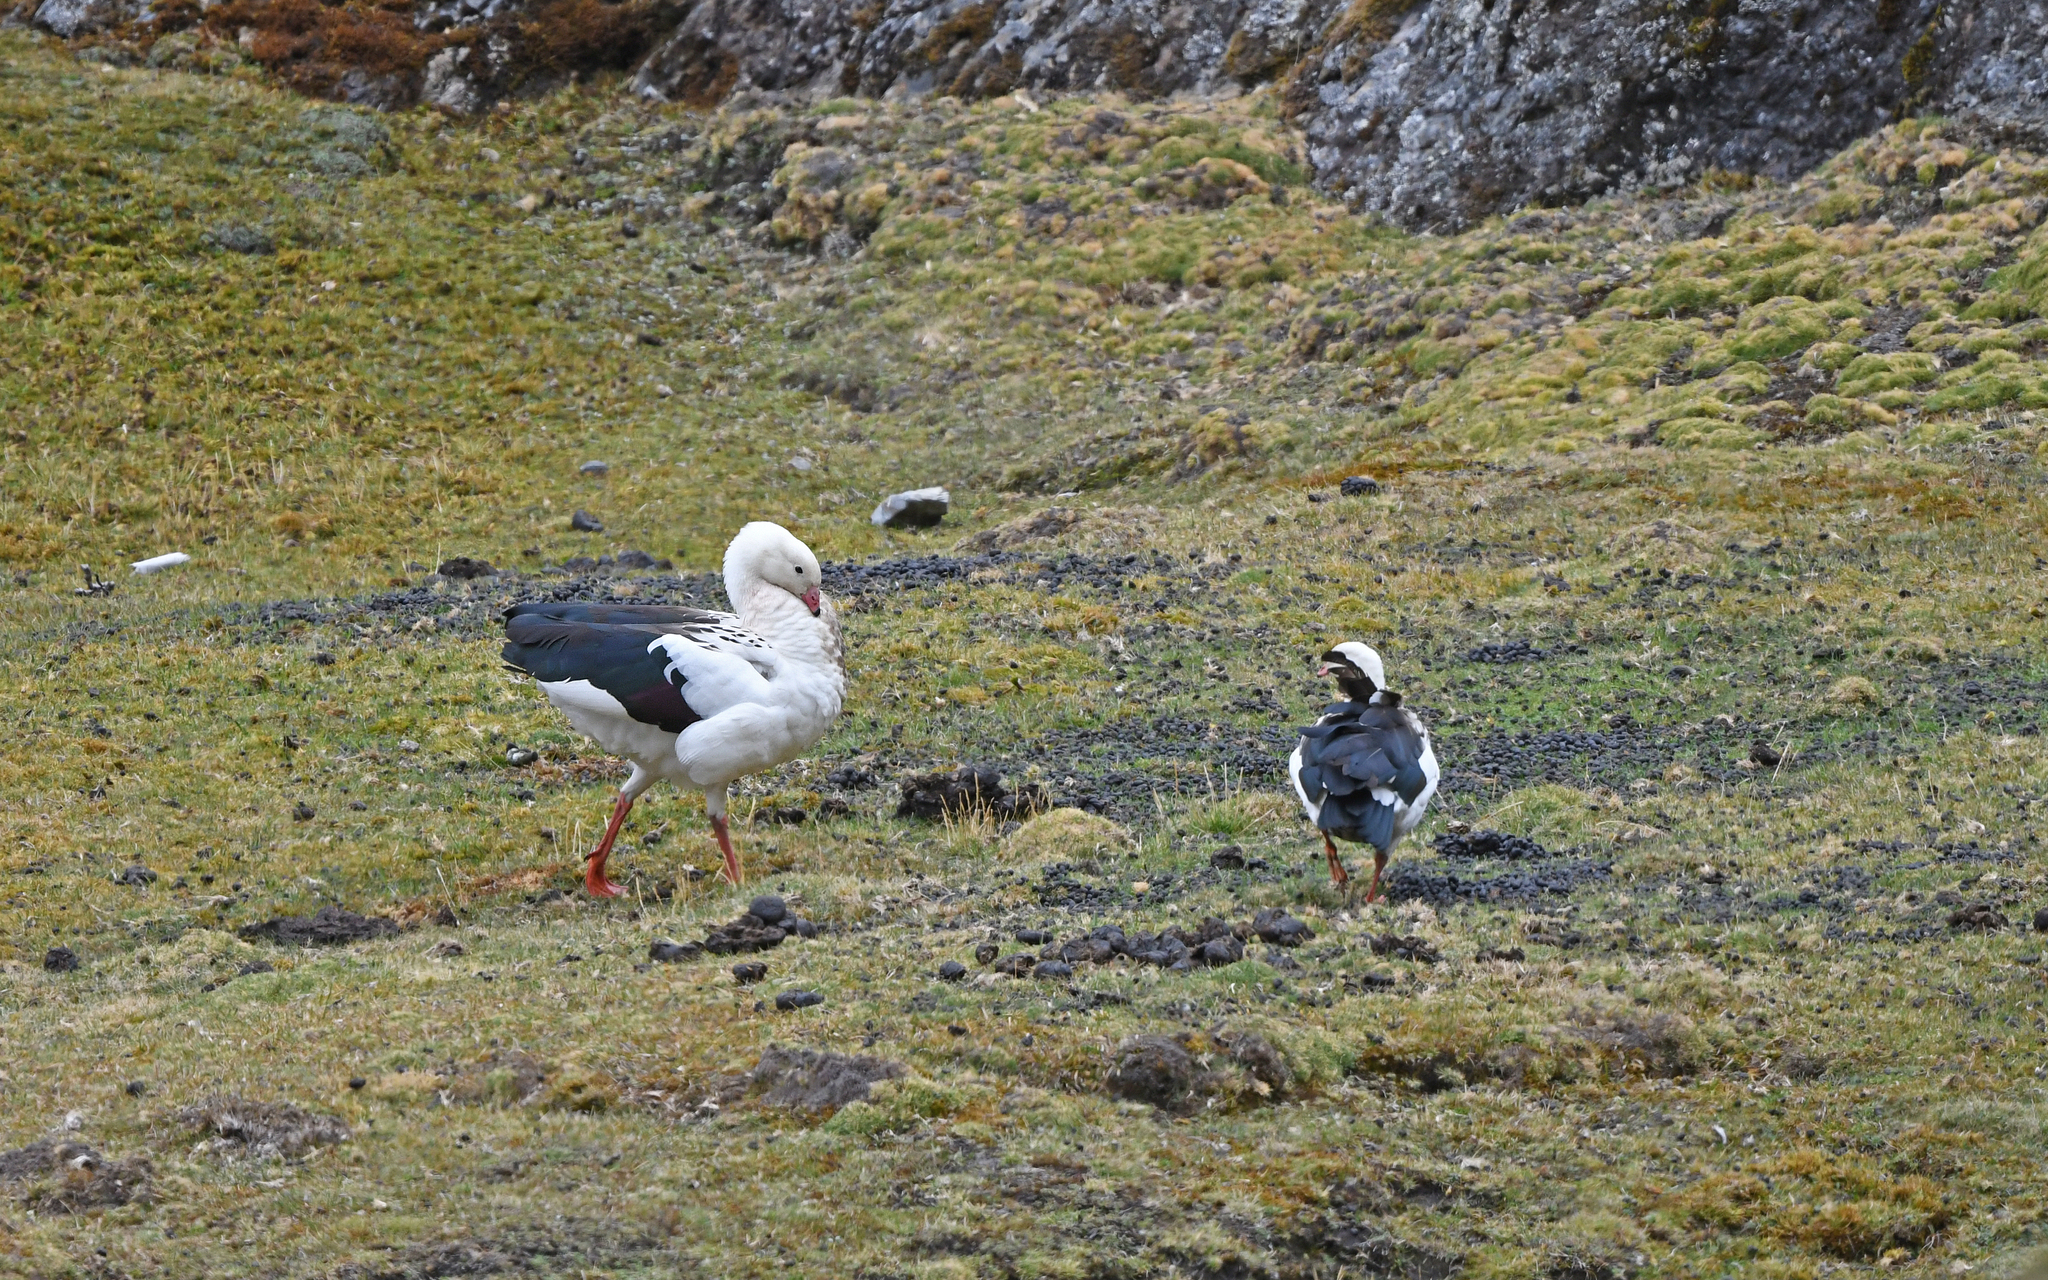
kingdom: Animalia
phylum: Chordata
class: Aves
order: Anseriformes
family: Anatidae
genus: Chloephaga
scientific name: Chloephaga melanoptera
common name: Andean goose
